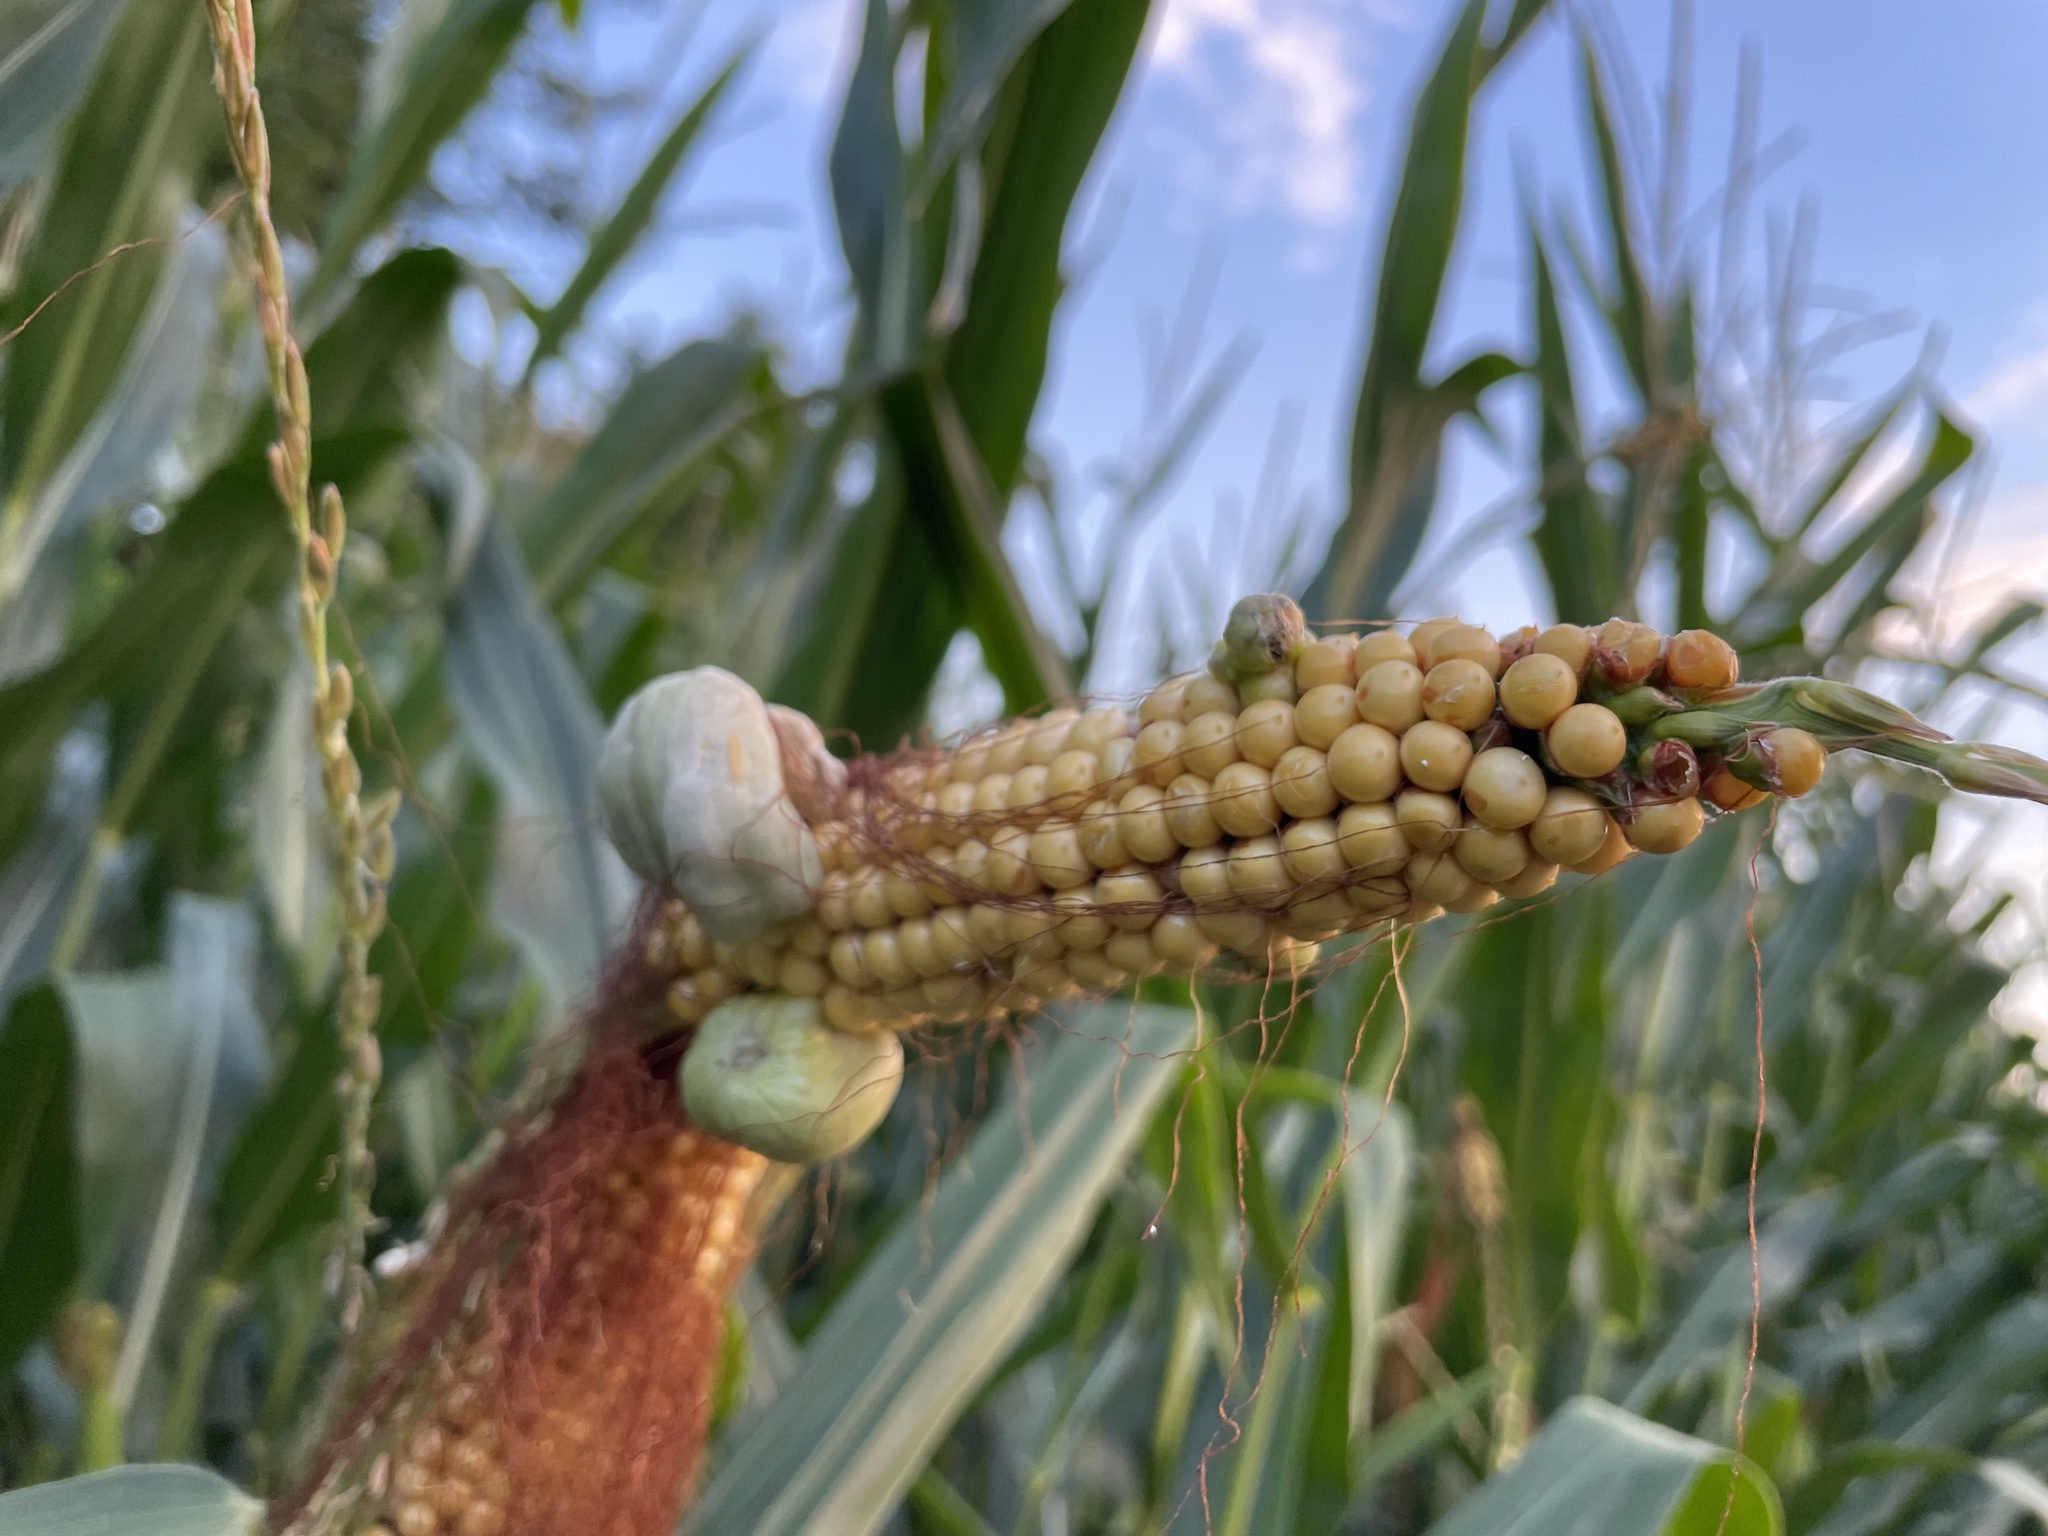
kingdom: Fungi
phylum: Basidiomycota
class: Ustilaginomycetes
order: Ustilaginales
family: Ustilaginaceae
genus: Mycosarcoma
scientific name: Mycosarcoma maydis
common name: Corn smut
